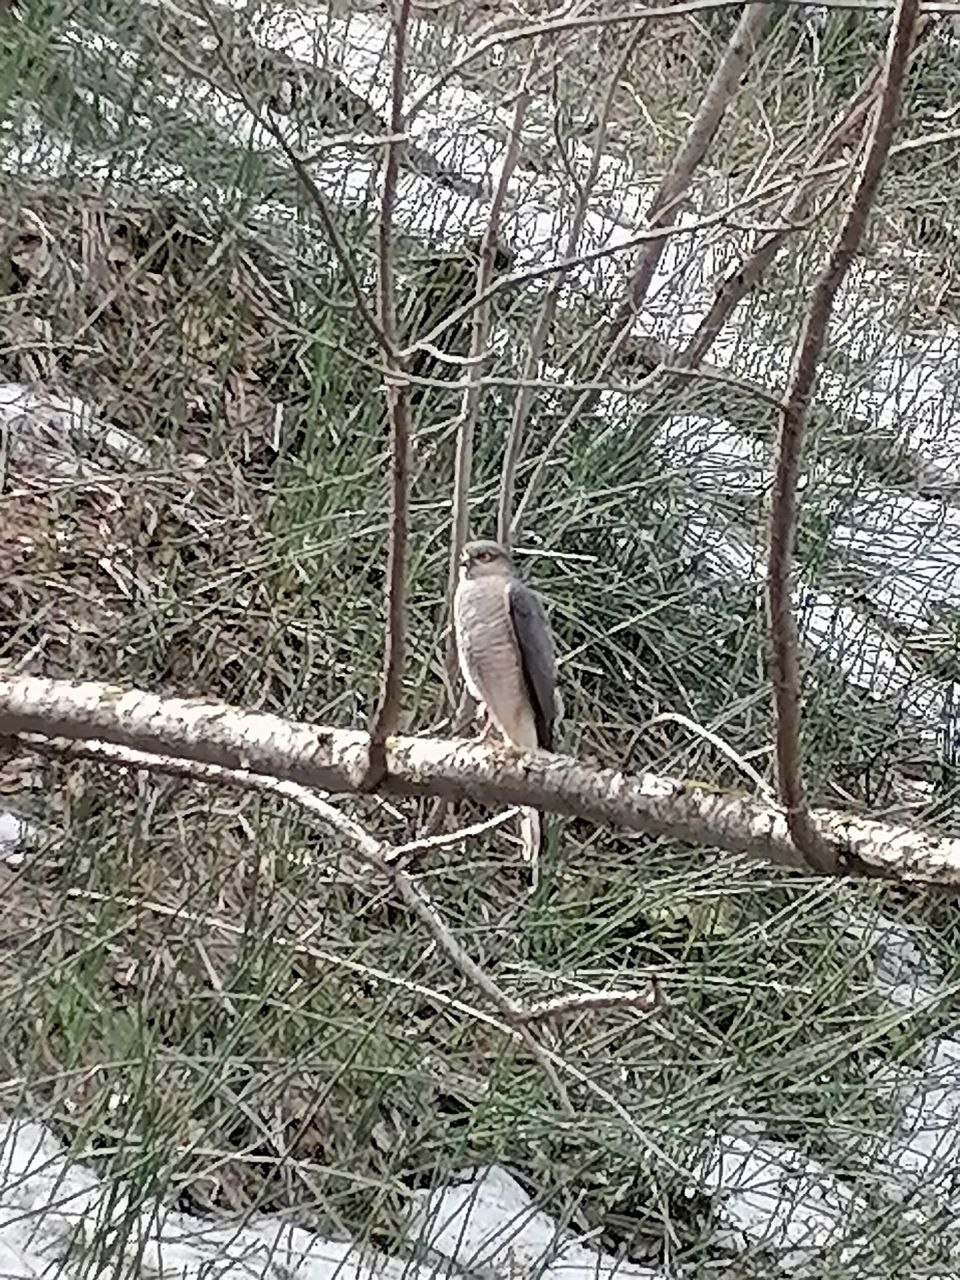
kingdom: Animalia
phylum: Chordata
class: Aves
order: Accipitriformes
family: Accipitridae
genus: Accipiter
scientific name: Accipiter nisus
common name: Eurasian sparrowhawk
